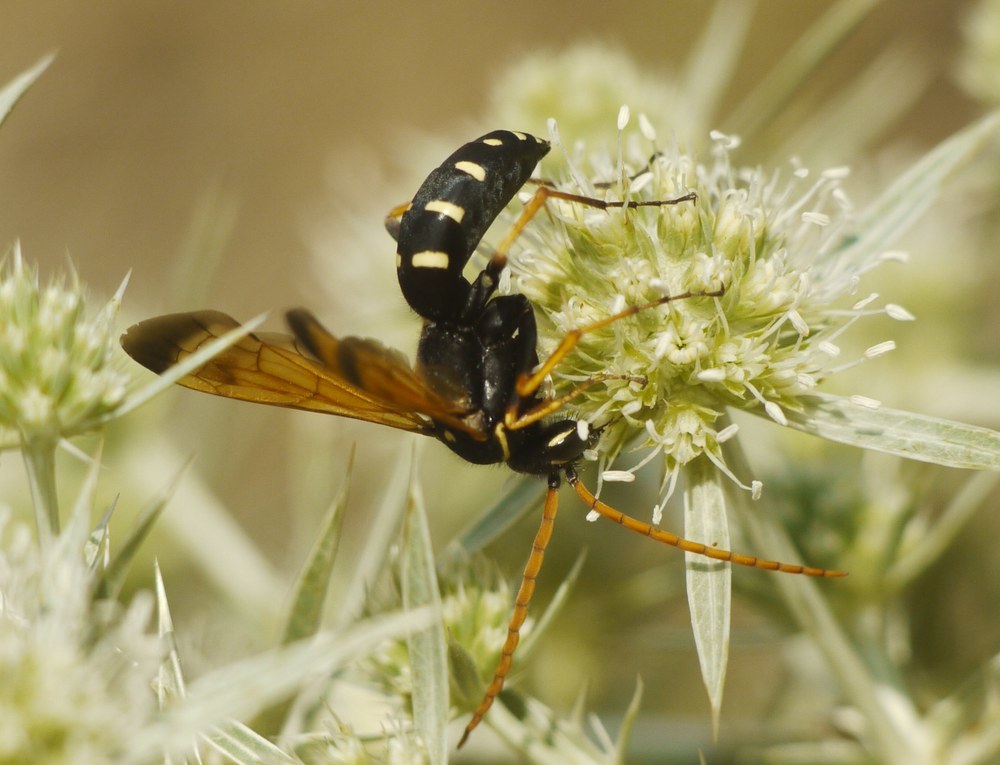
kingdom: Animalia
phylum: Arthropoda
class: Insecta
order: Hymenoptera
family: Pompilidae
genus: Parabatozonus
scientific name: Parabatozonus lacerticida
